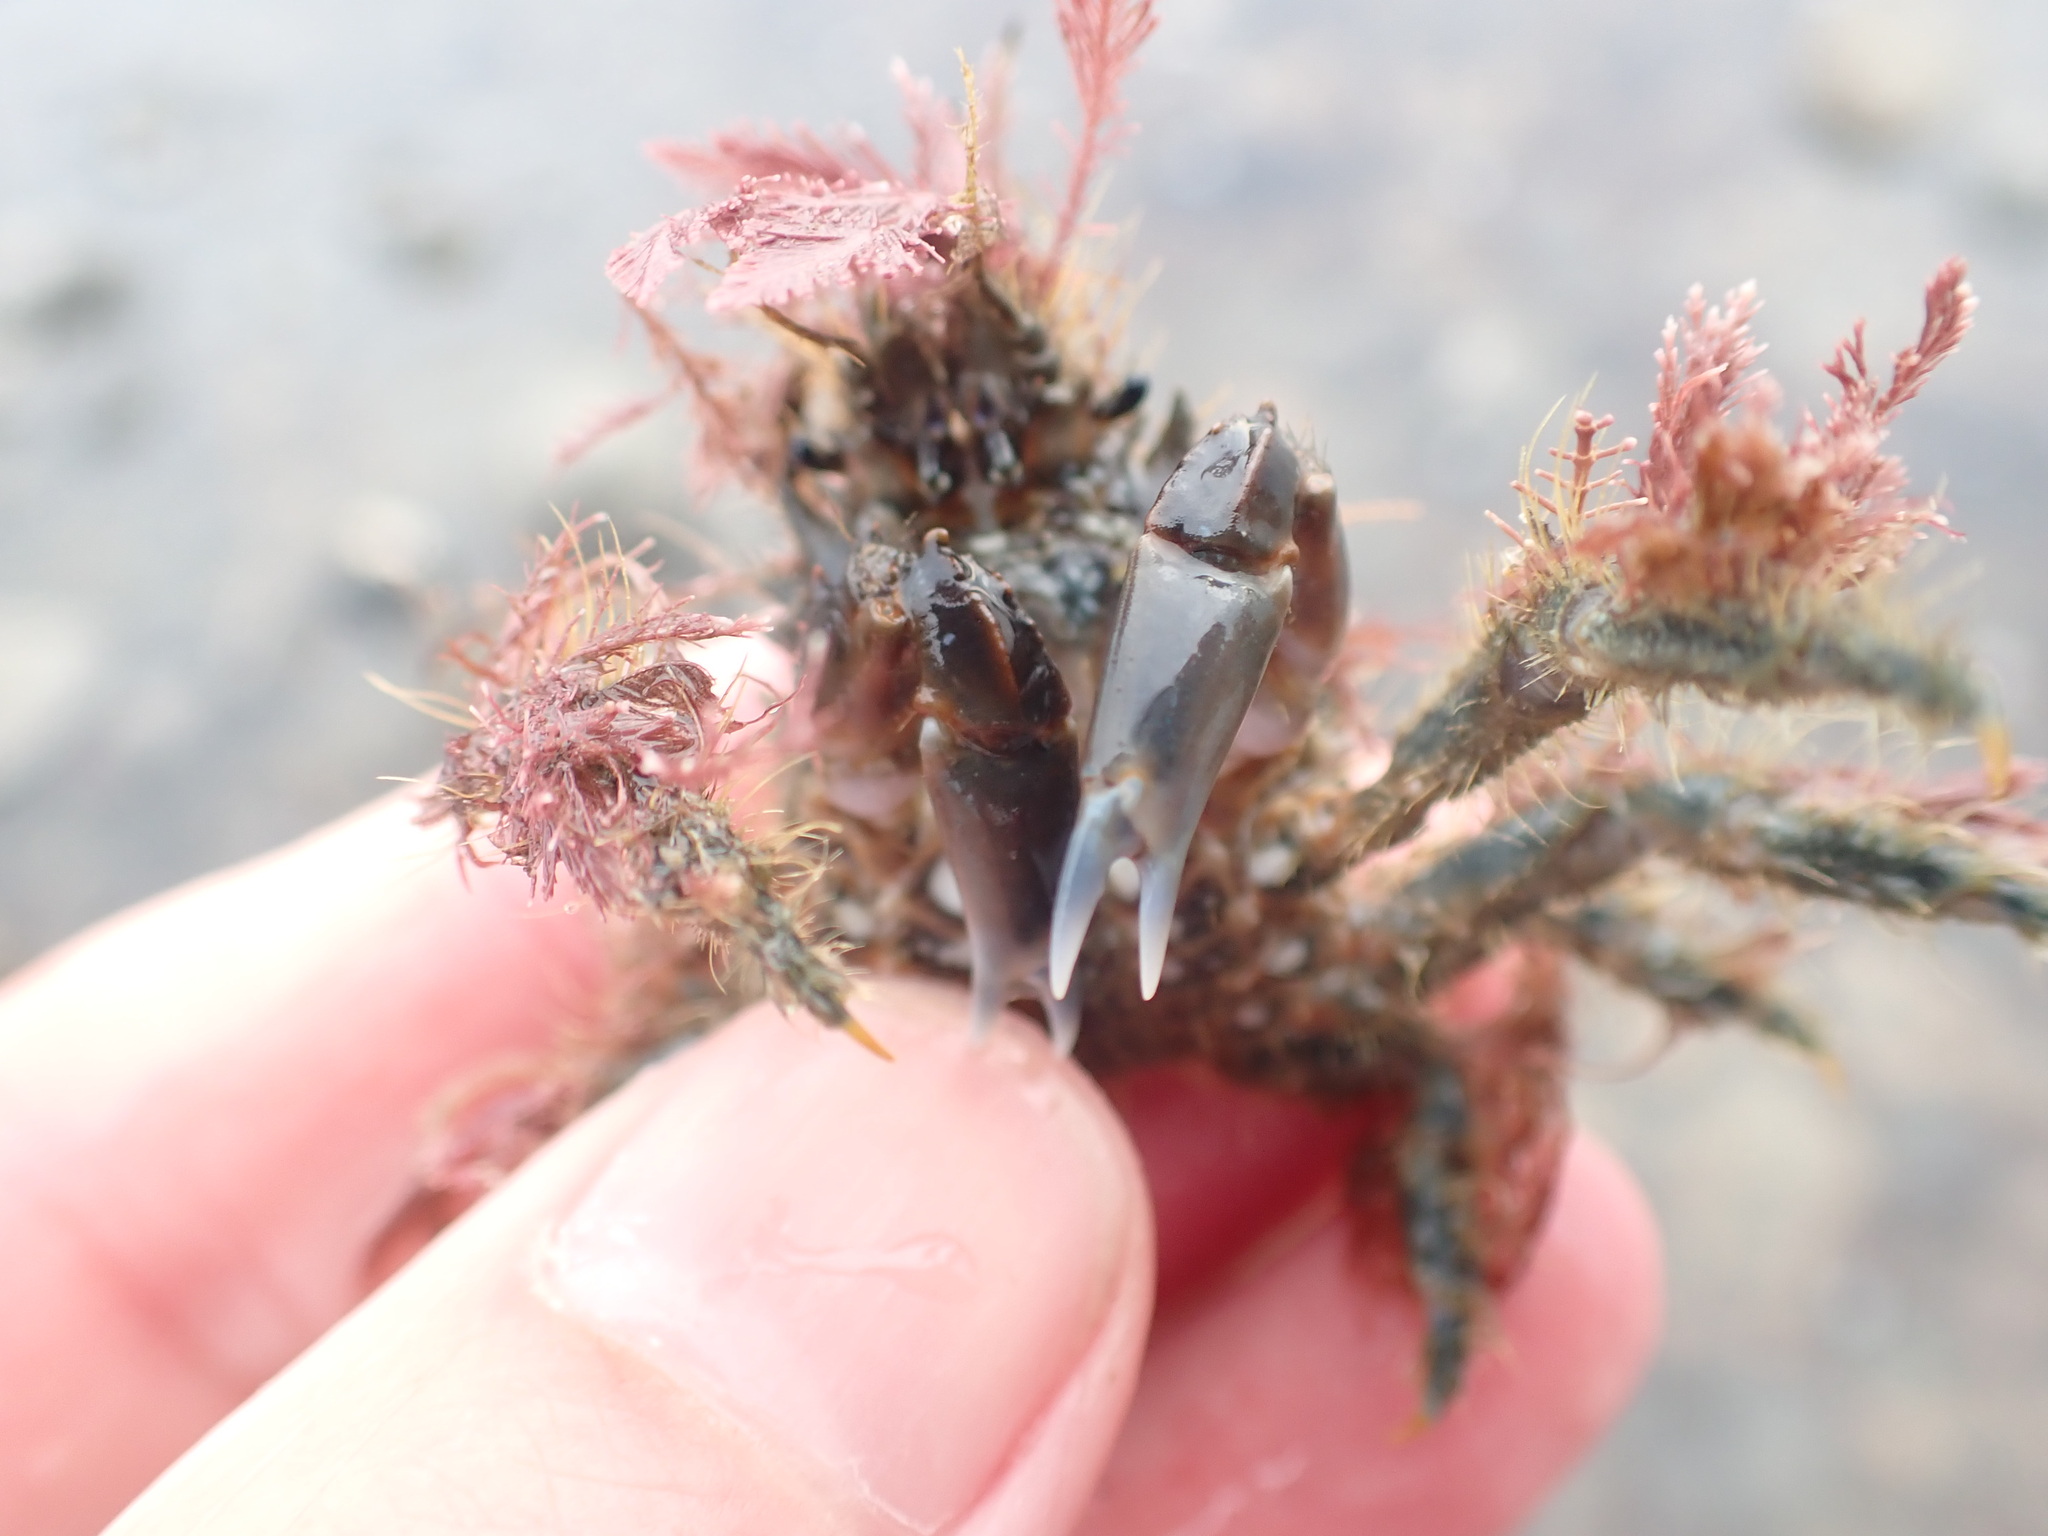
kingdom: Animalia
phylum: Arthropoda
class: Malacostraca
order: Decapoda
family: Majidae
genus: Notomithrax
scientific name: Notomithrax ursus
